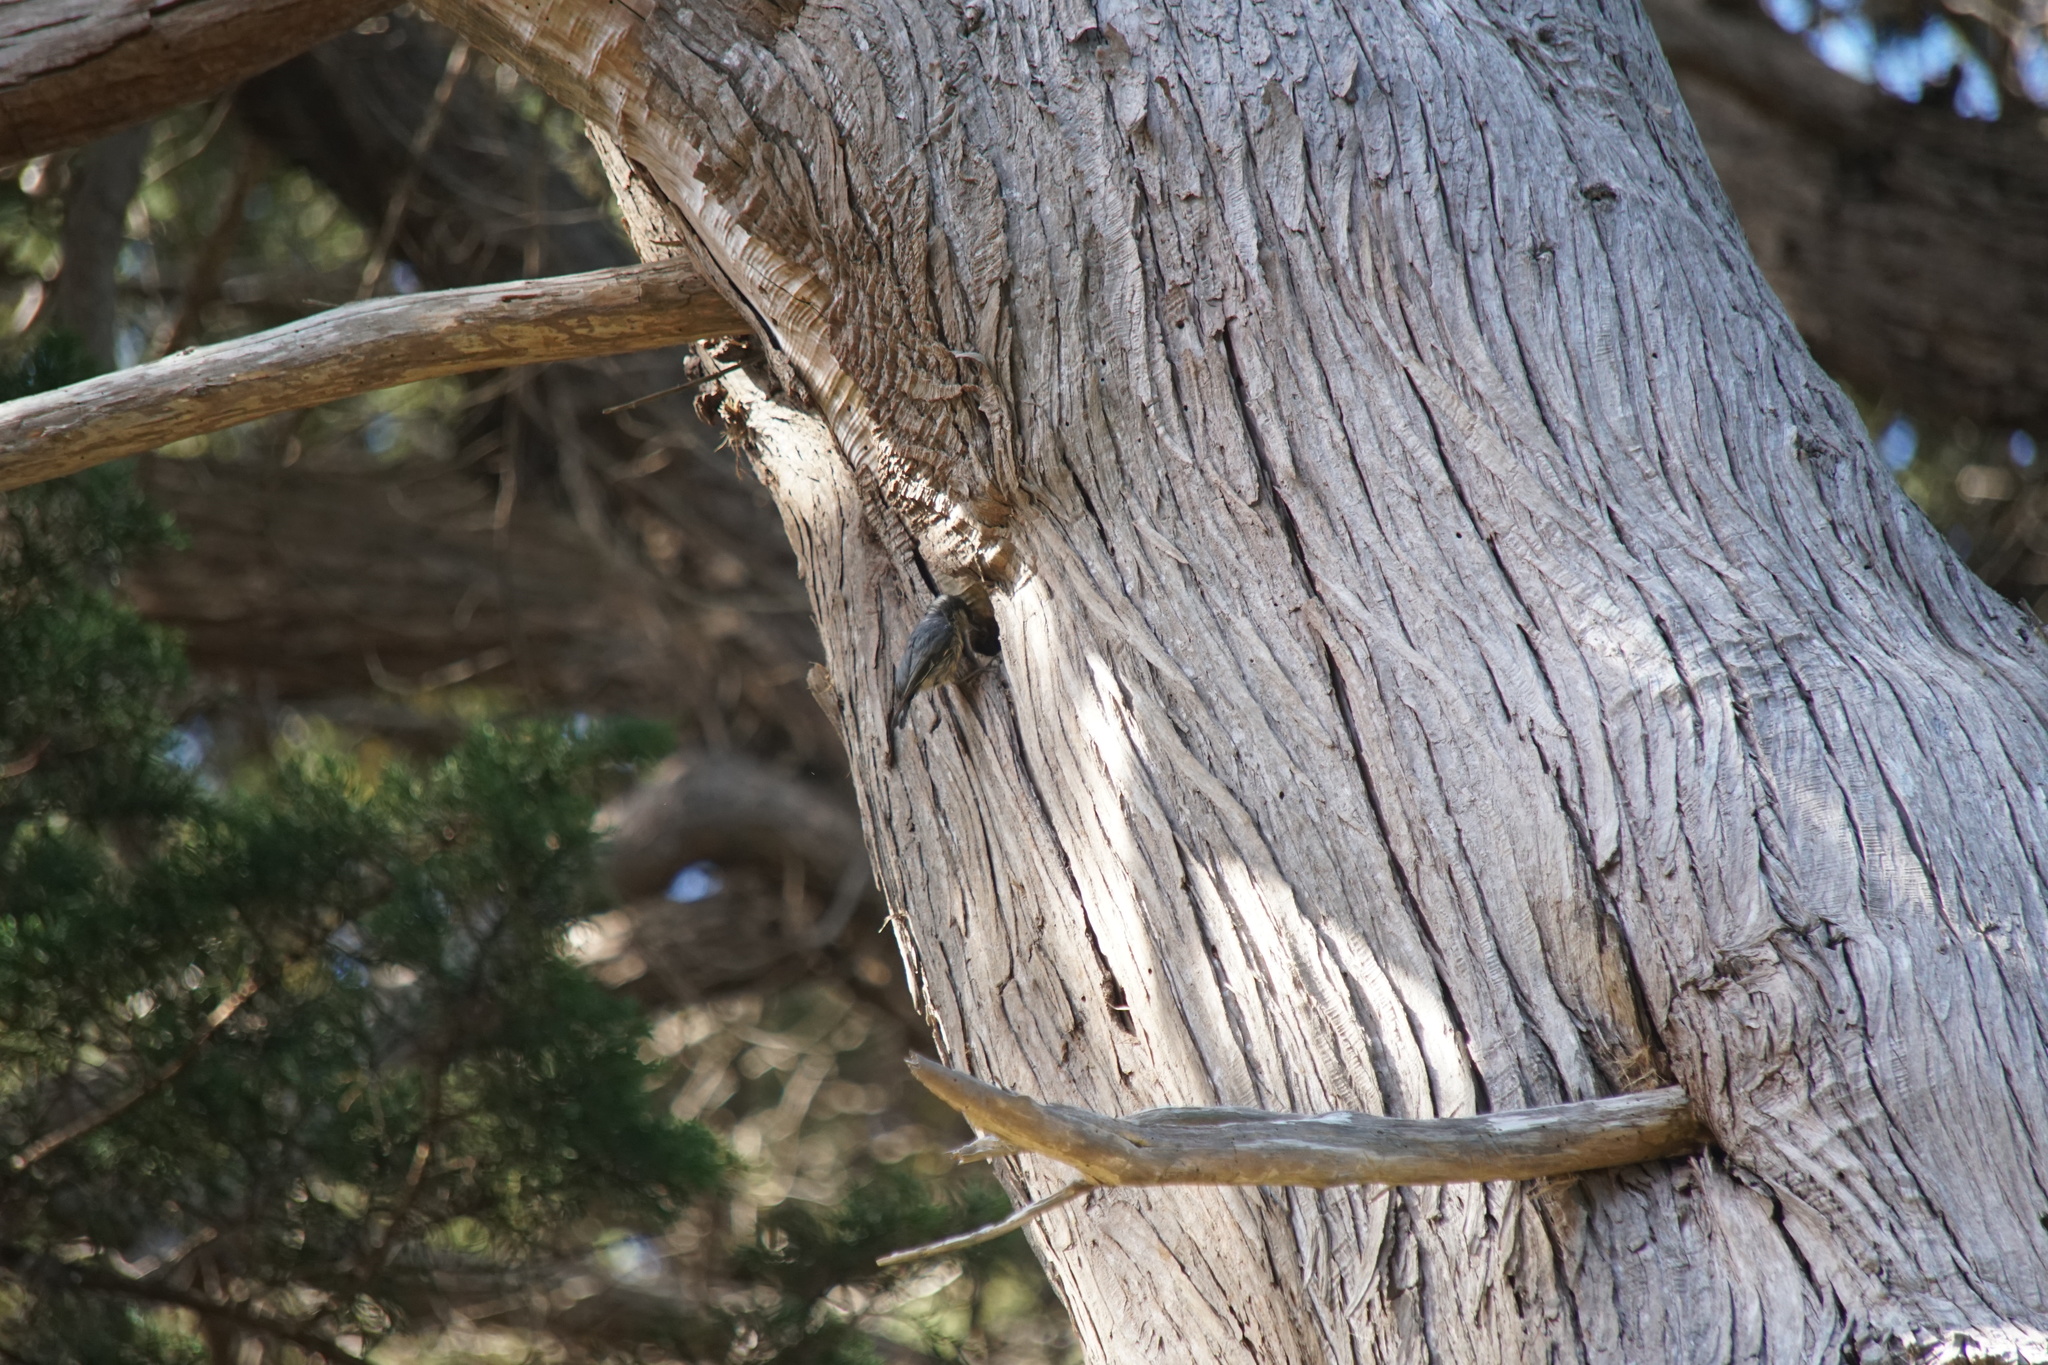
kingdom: Animalia
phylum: Chordata
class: Aves
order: Passeriformes
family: Sittidae
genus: Sitta
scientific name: Sitta pygmaea
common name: Pygmy nuthatch
